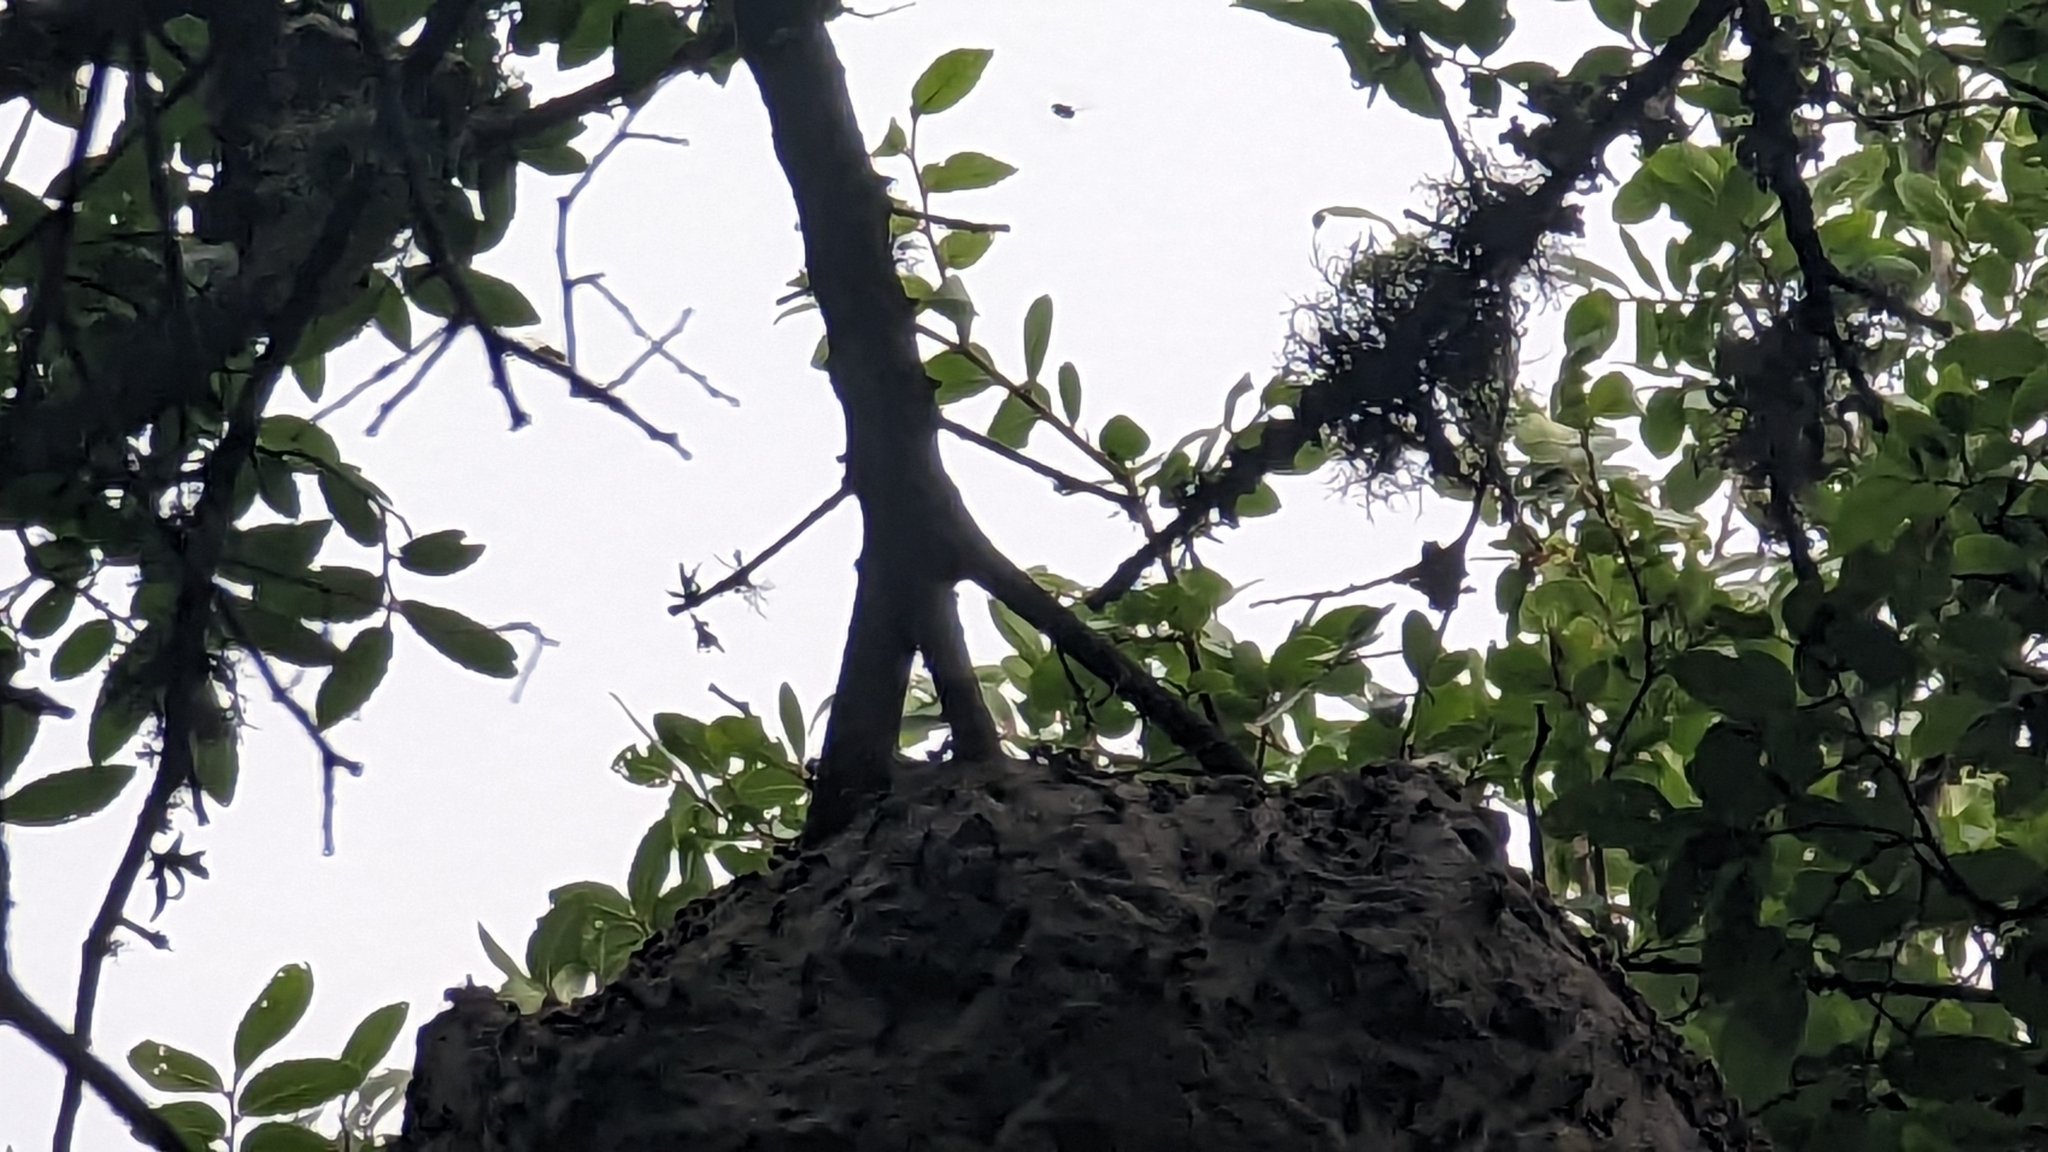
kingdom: Animalia
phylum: Arthropoda
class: Insecta
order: Hymenoptera
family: Vespidae
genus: Brachygastra
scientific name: Brachygastra mellifica
